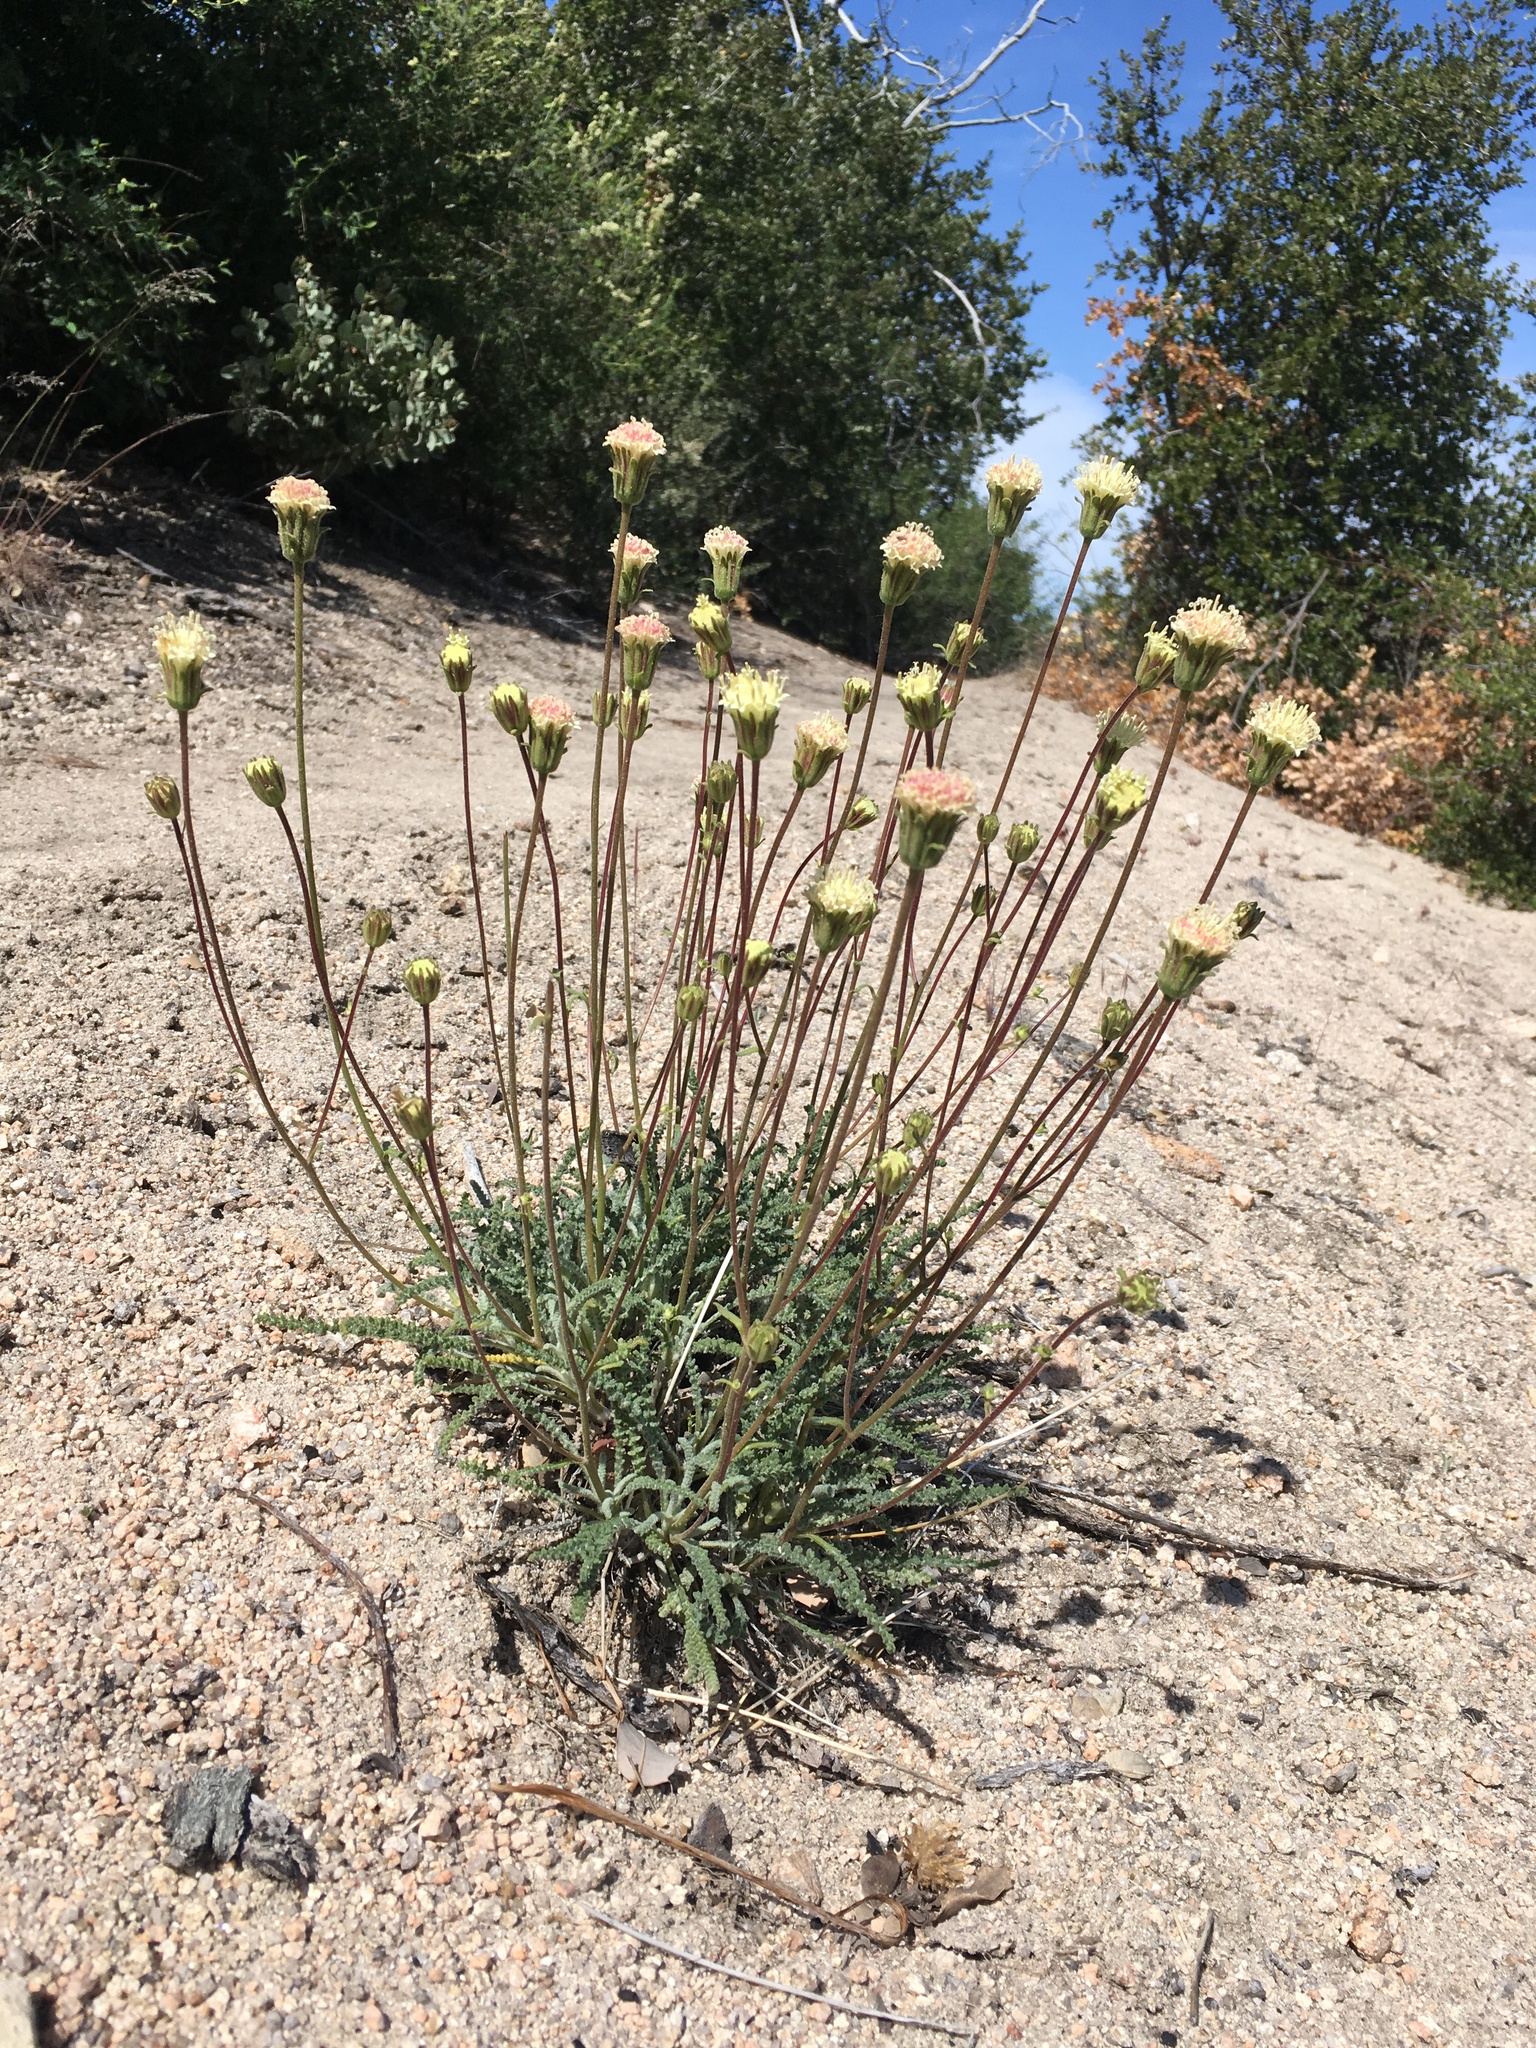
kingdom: Plantae
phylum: Tracheophyta
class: Magnoliopsida
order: Asterales
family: Asteraceae
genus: Chaenactis
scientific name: Chaenactis santolinoides
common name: Santolina pincushion
